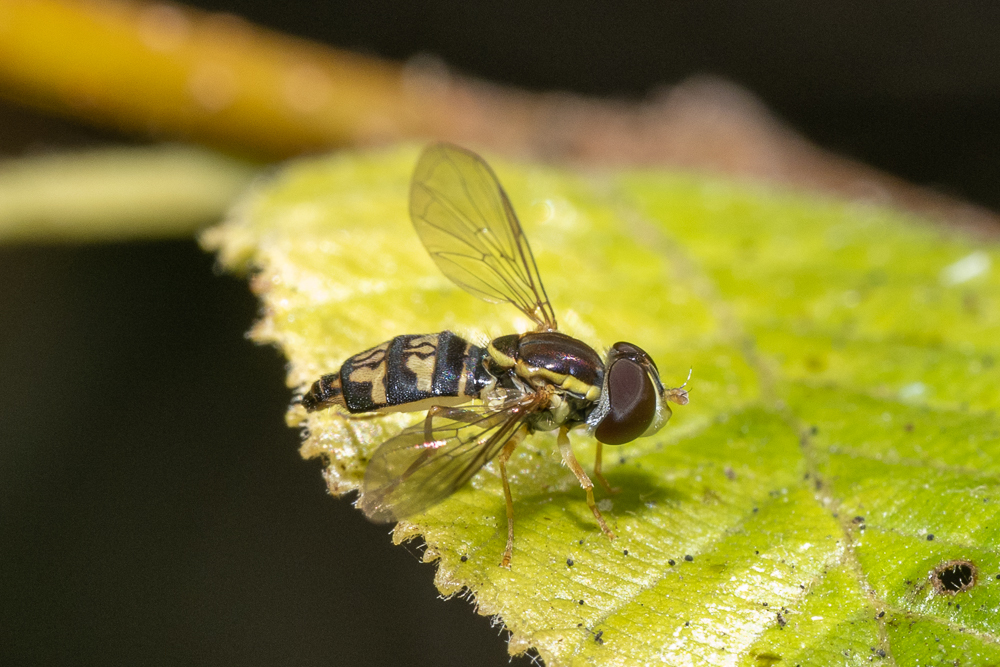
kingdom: Animalia
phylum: Arthropoda
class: Insecta
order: Diptera
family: Syrphidae
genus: Toxomerus
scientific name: Toxomerus occidentalis
